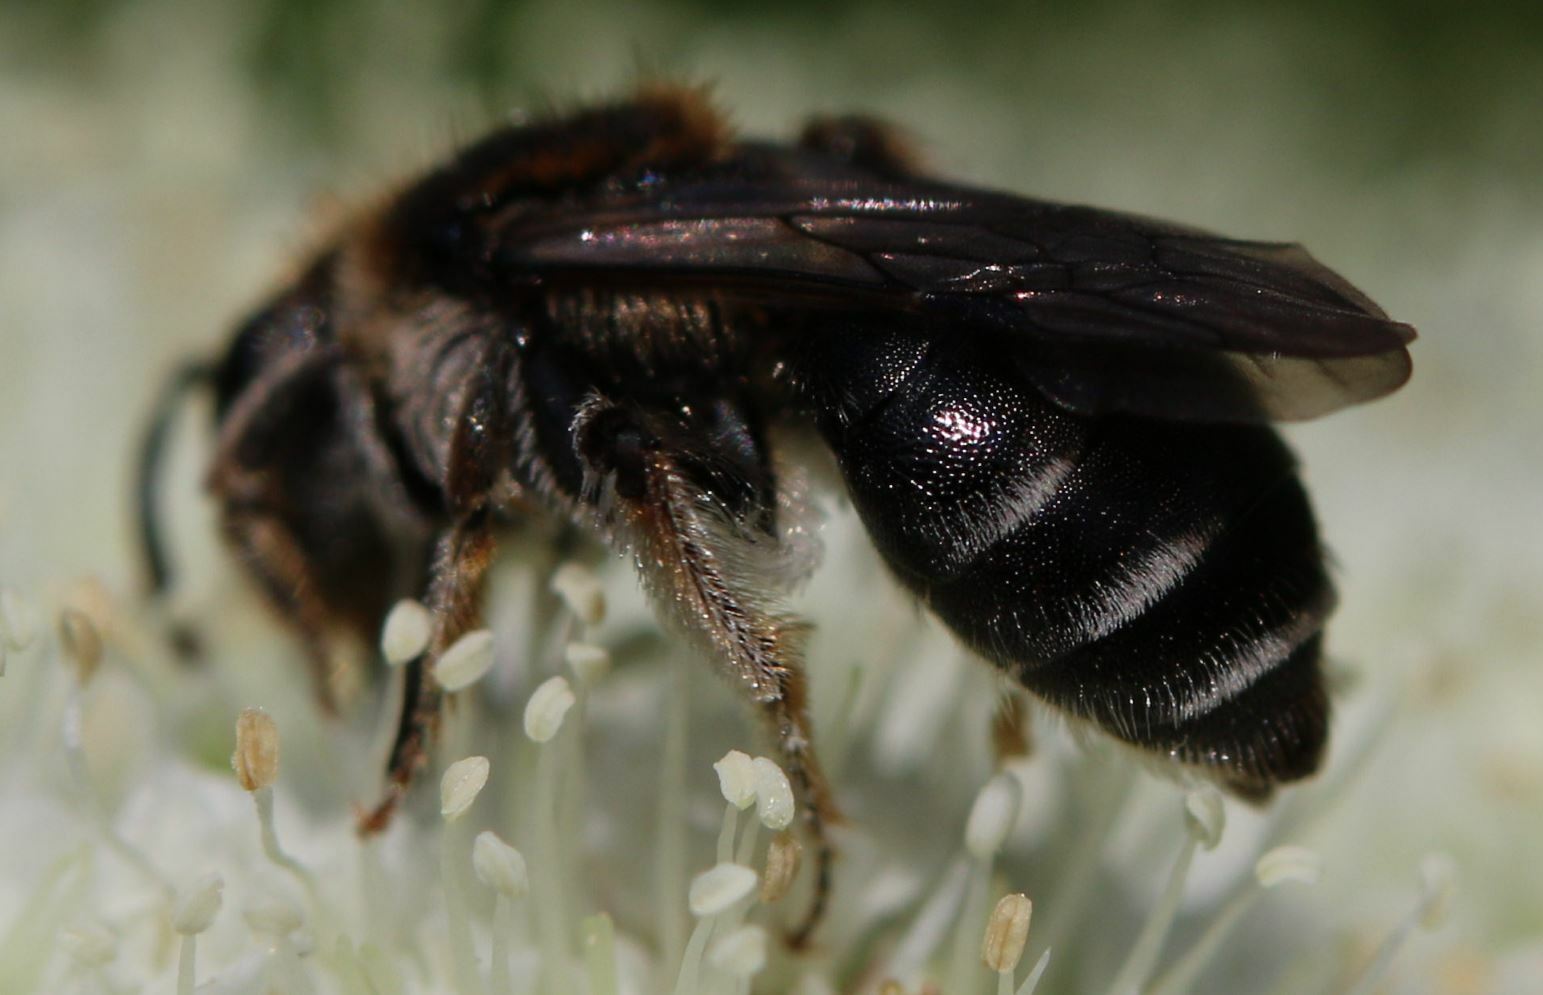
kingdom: Animalia
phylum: Arthropoda
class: Insecta
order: Hymenoptera
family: Andrenidae
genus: Andrena
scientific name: Andrena colletiformis
